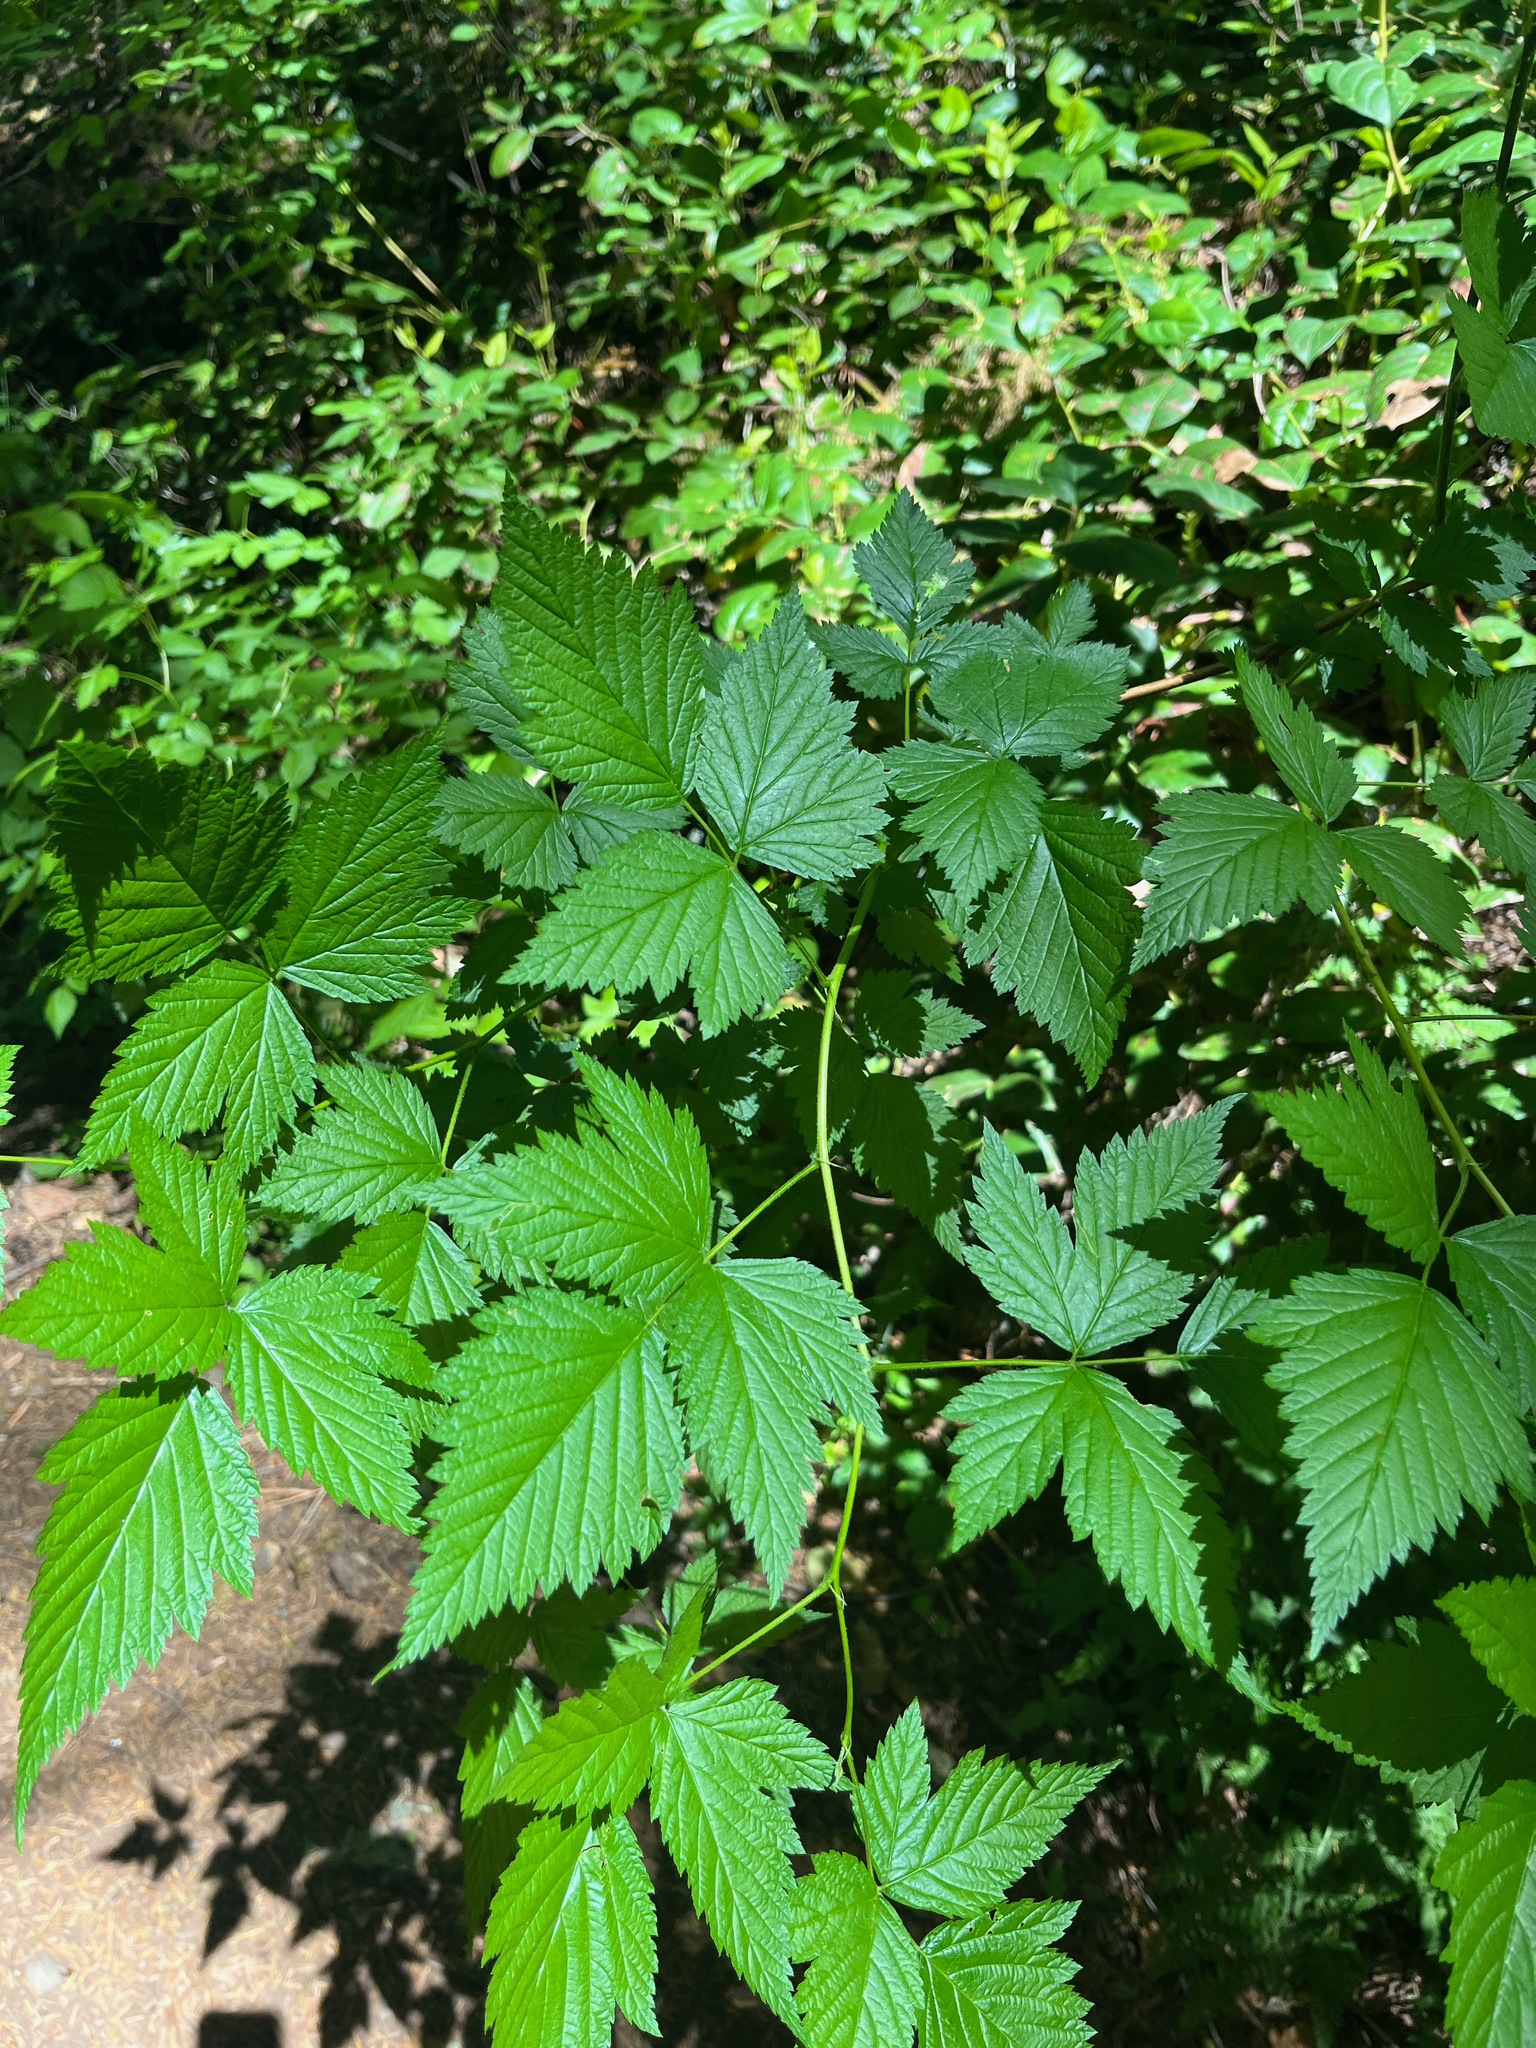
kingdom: Plantae
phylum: Tracheophyta
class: Magnoliopsida
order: Rosales
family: Rosaceae
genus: Rubus
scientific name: Rubus spectabilis
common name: Salmonberry
